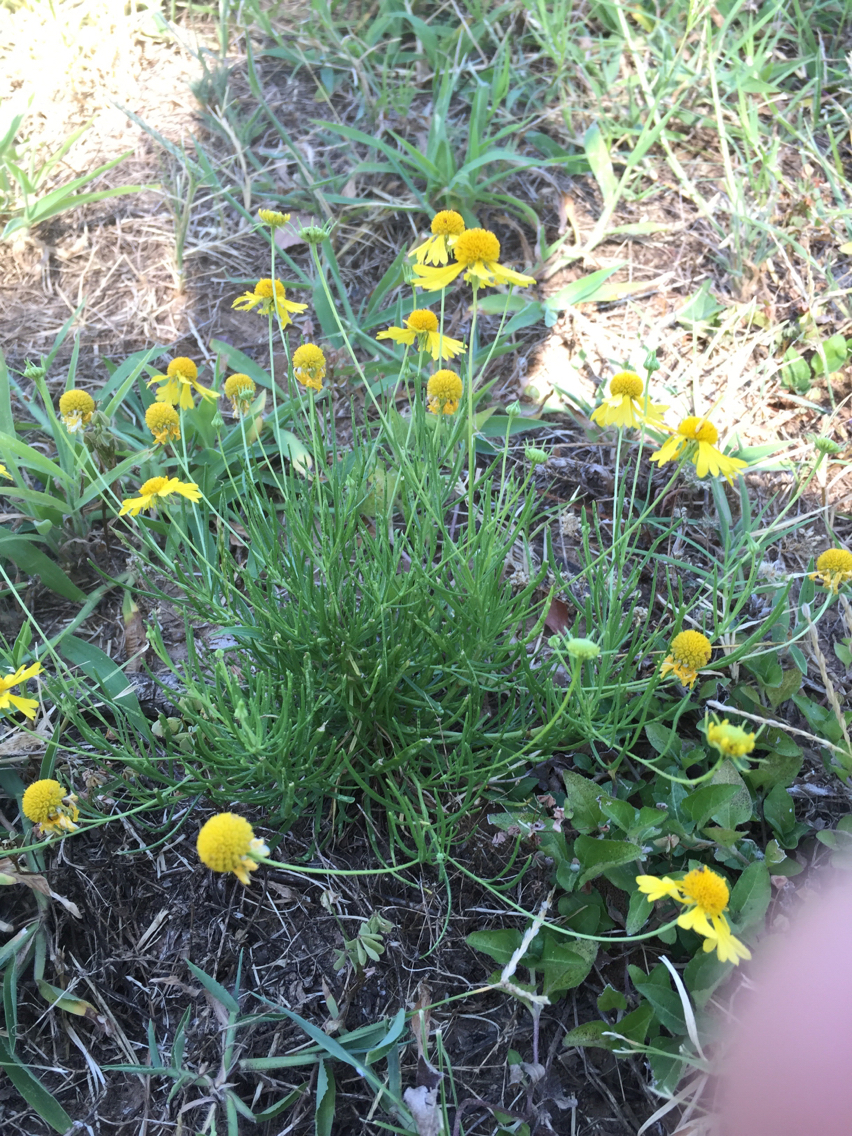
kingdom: Plantae
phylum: Tracheophyta
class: Magnoliopsida
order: Asterales
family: Asteraceae
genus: Helenium
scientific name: Helenium amarum
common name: Bitter sneezeweed
